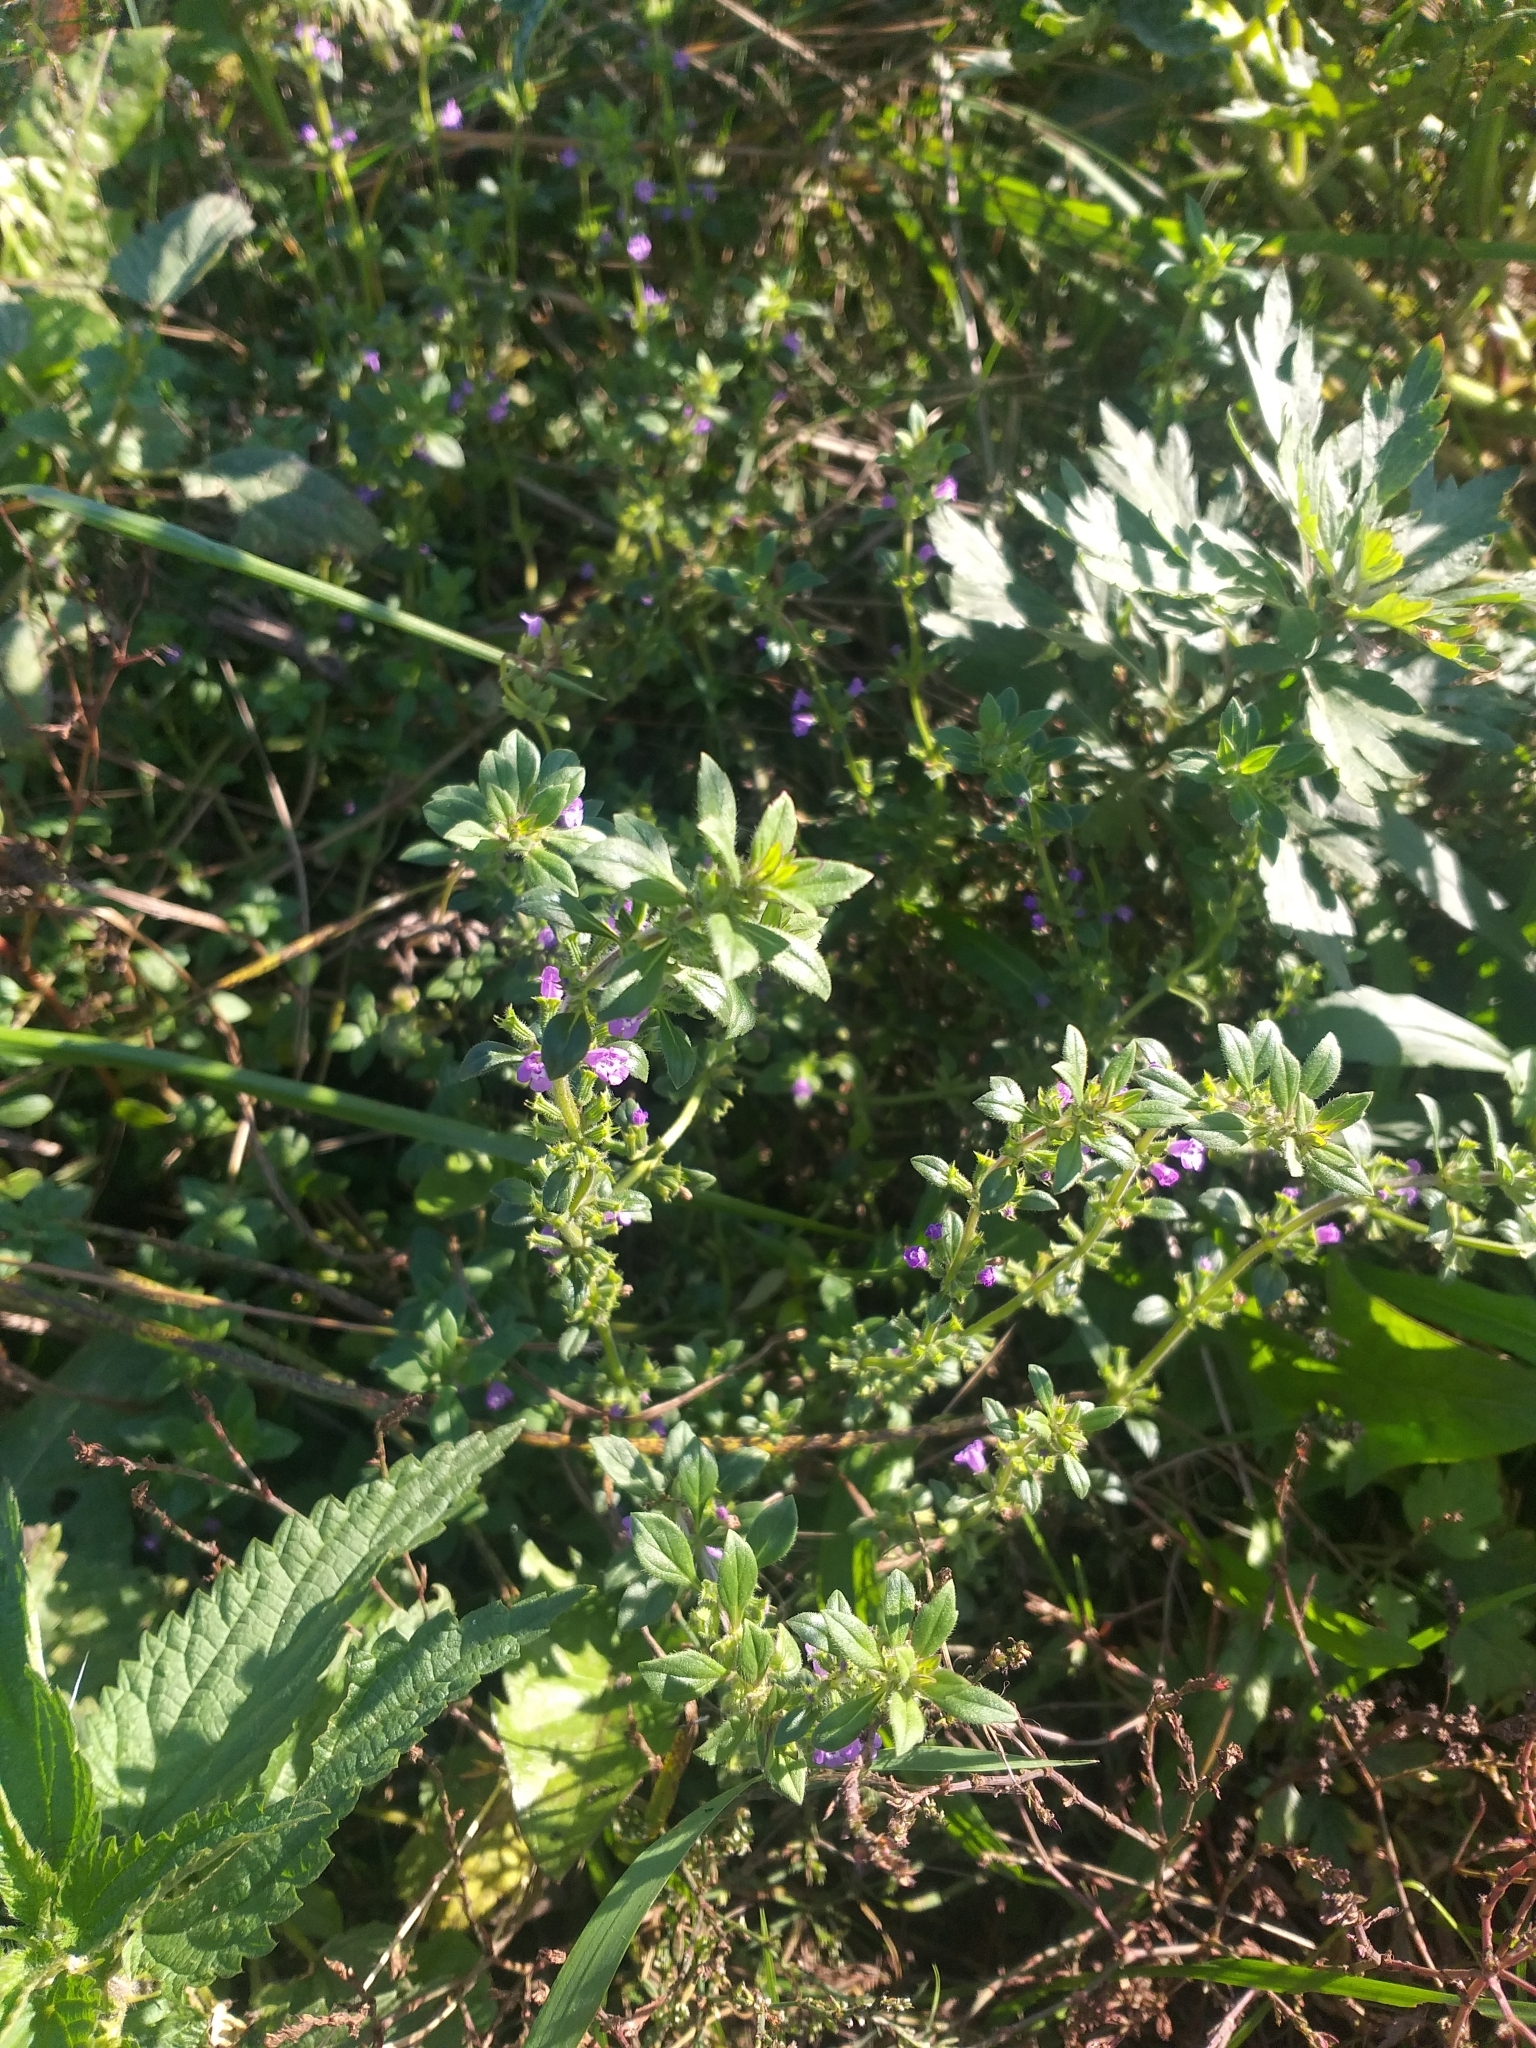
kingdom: Plantae
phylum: Tracheophyta
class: Magnoliopsida
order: Lamiales
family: Lamiaceae
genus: Clinopodium
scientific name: Clinopodium acinos
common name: Basil thyme
